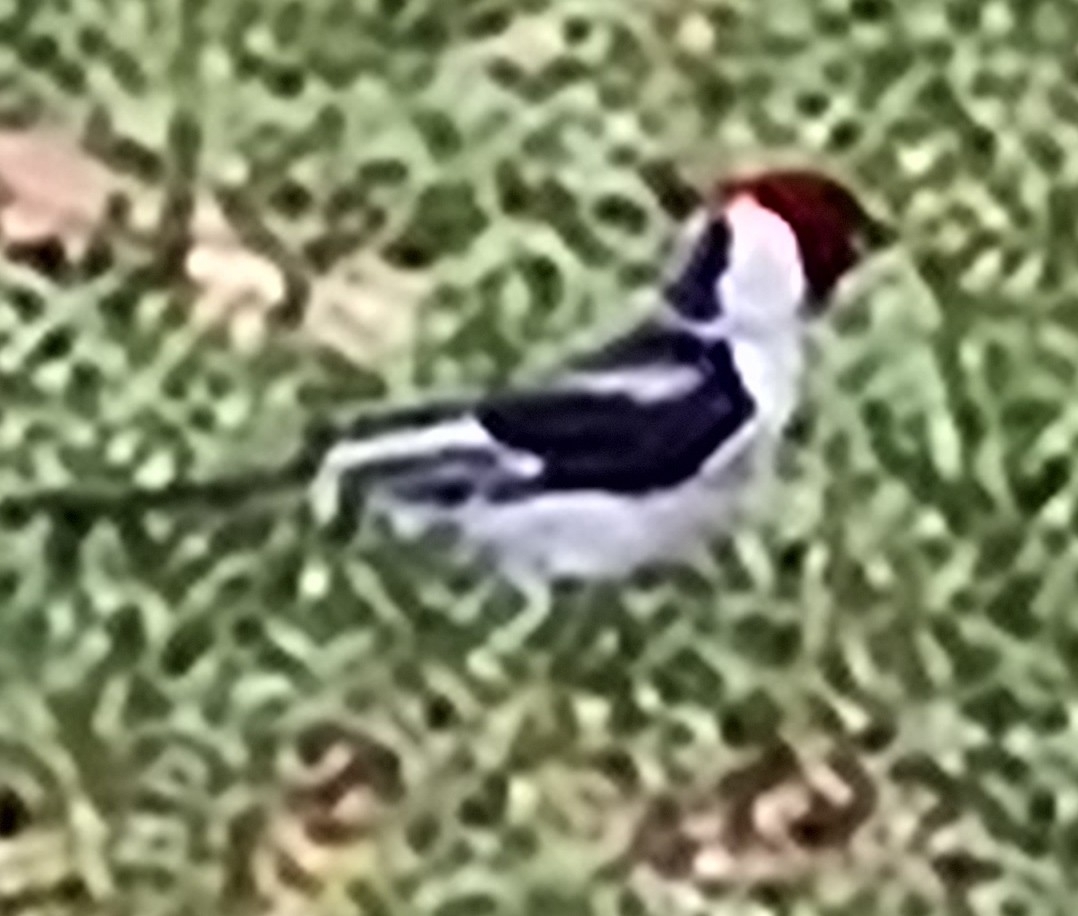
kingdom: Animalia
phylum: Chordata
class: Aves
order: Passeriformes
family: Thraupidae
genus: Paroaria
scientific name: Paroaria dominicana
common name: Red-cowled cardinal
